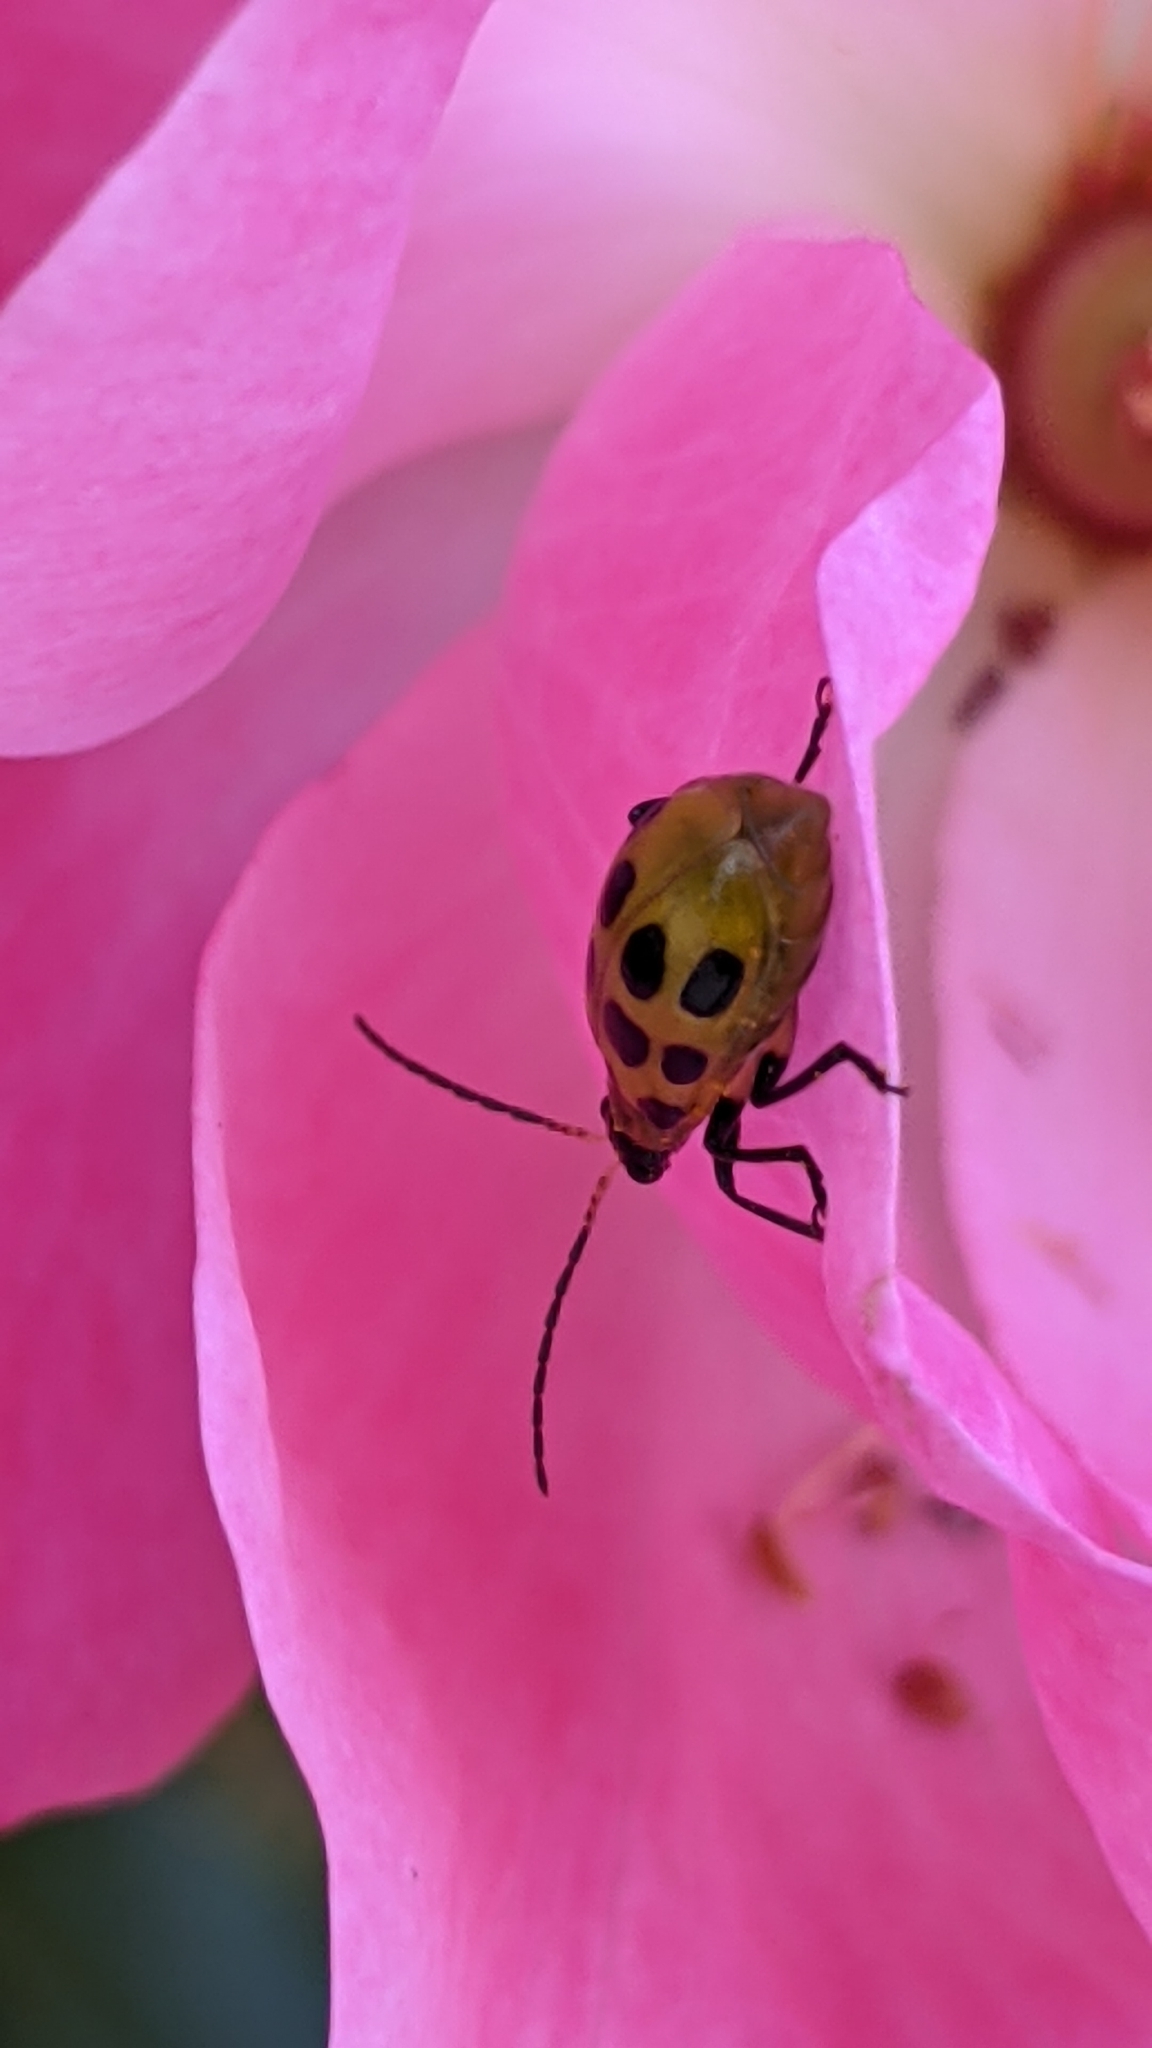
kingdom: Animalia
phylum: Arthropoda
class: Insecta
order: Coleoptera
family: Chrysomelidae
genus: Diabrotica
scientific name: Diabrotica undecimpunctata
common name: Spotted cucumber beetle
